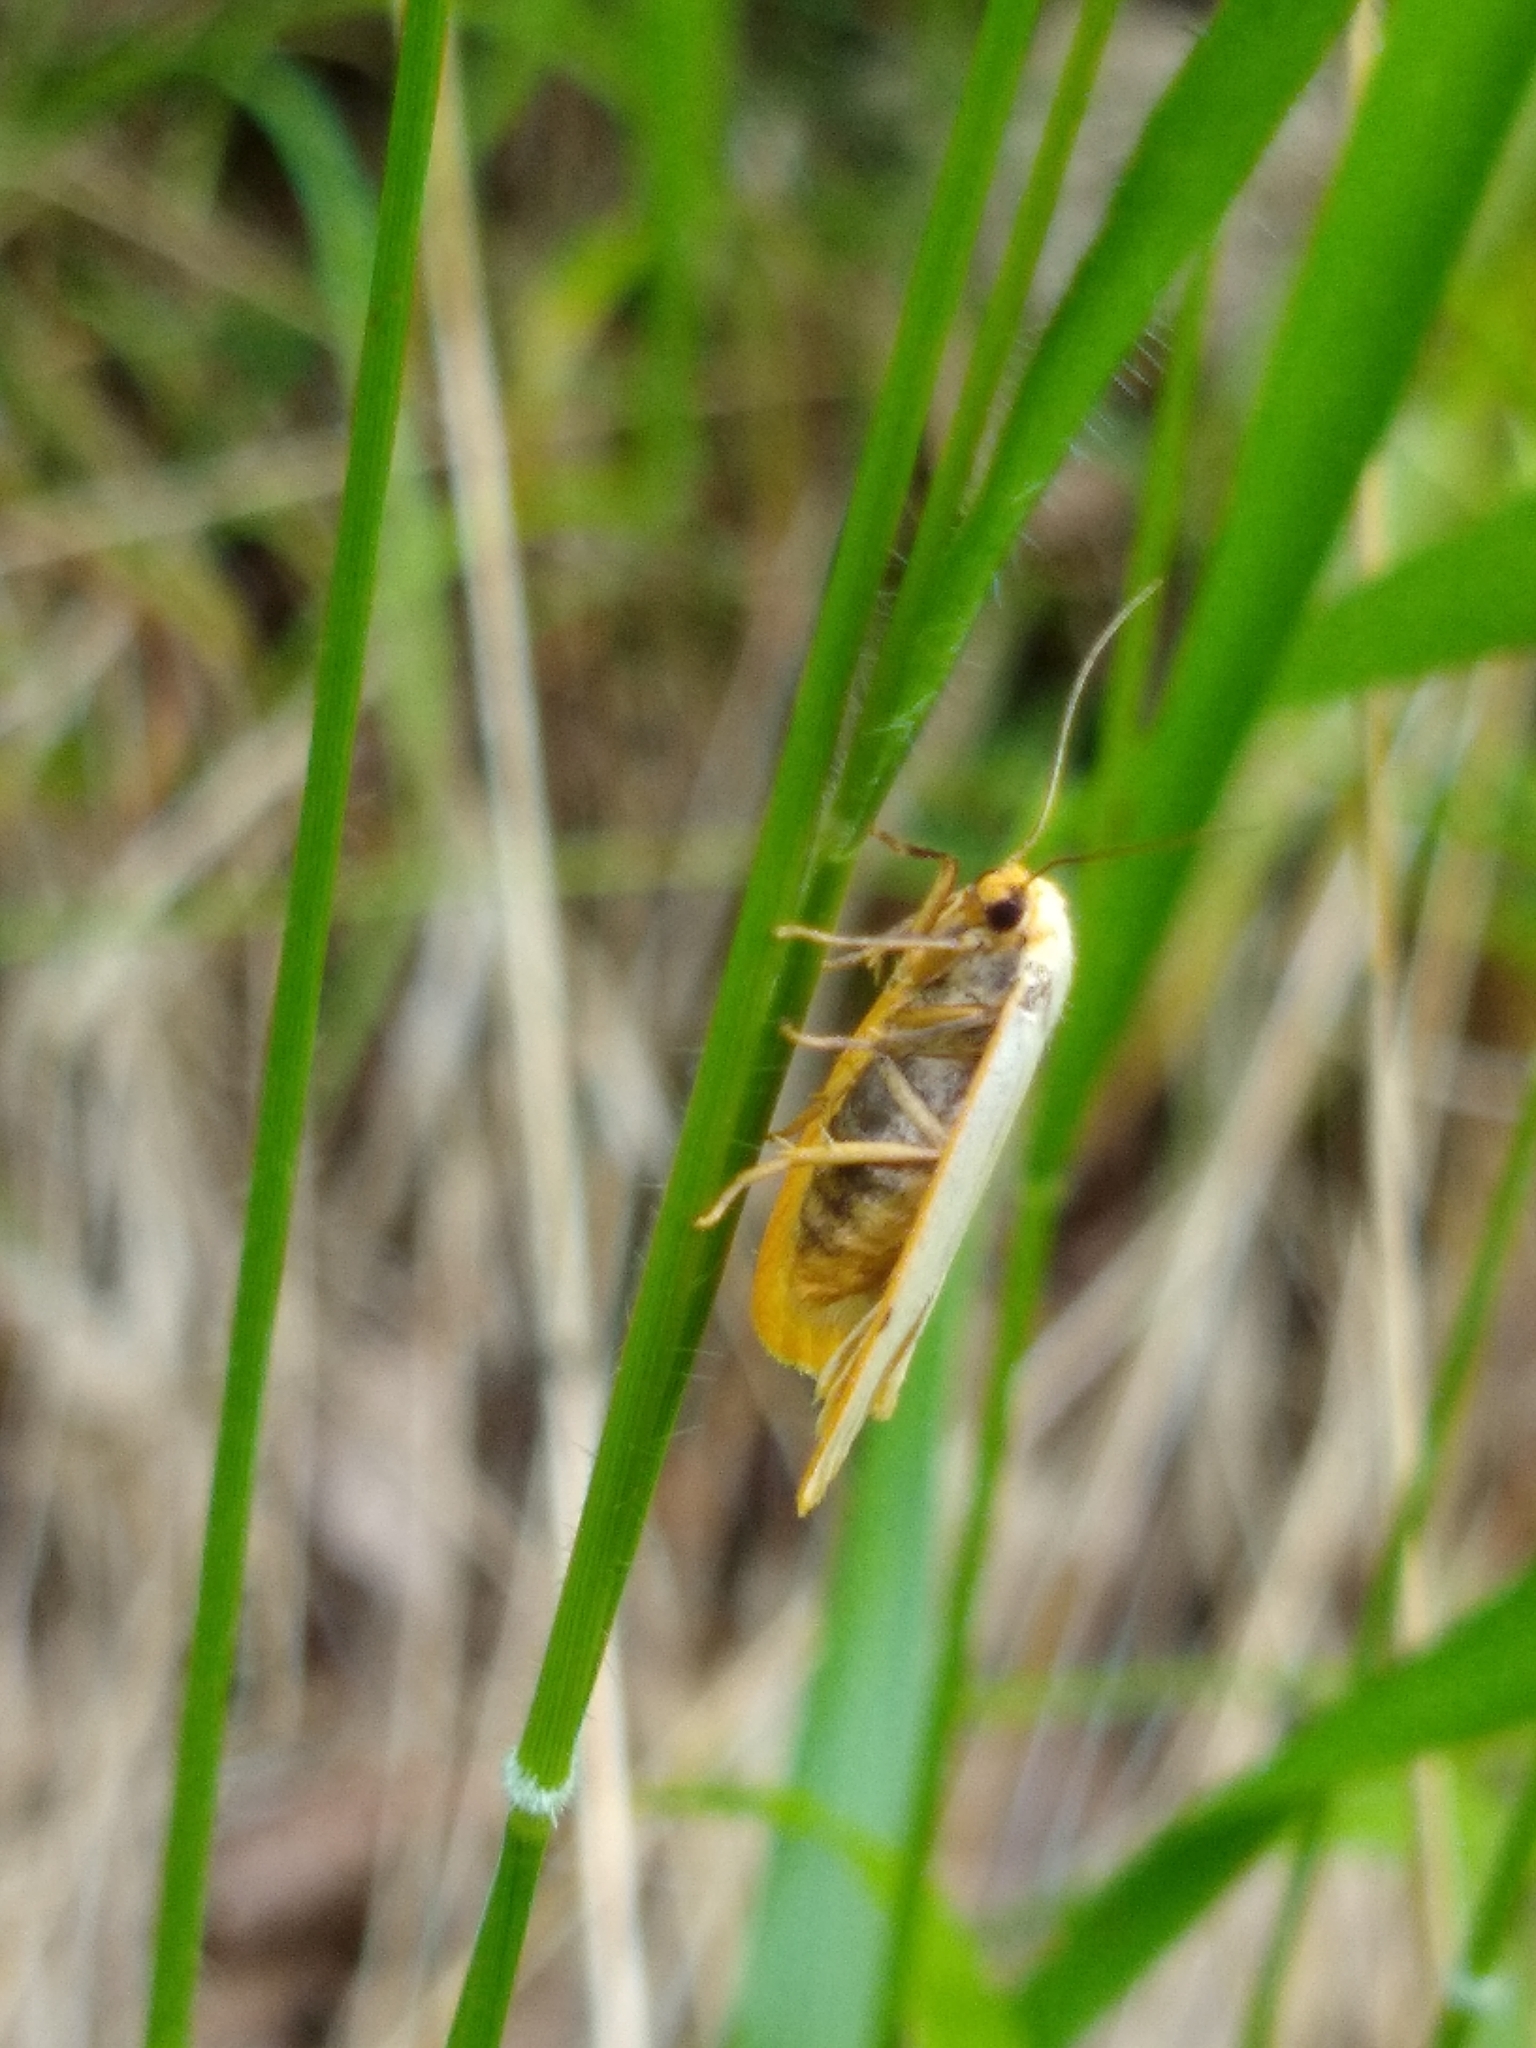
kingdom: Animalia
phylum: Arthropoda
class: Insecta
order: Lepidoptera
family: Erebidae
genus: Cybosia
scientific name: Cybosia mesomella
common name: Four-dotted footman
